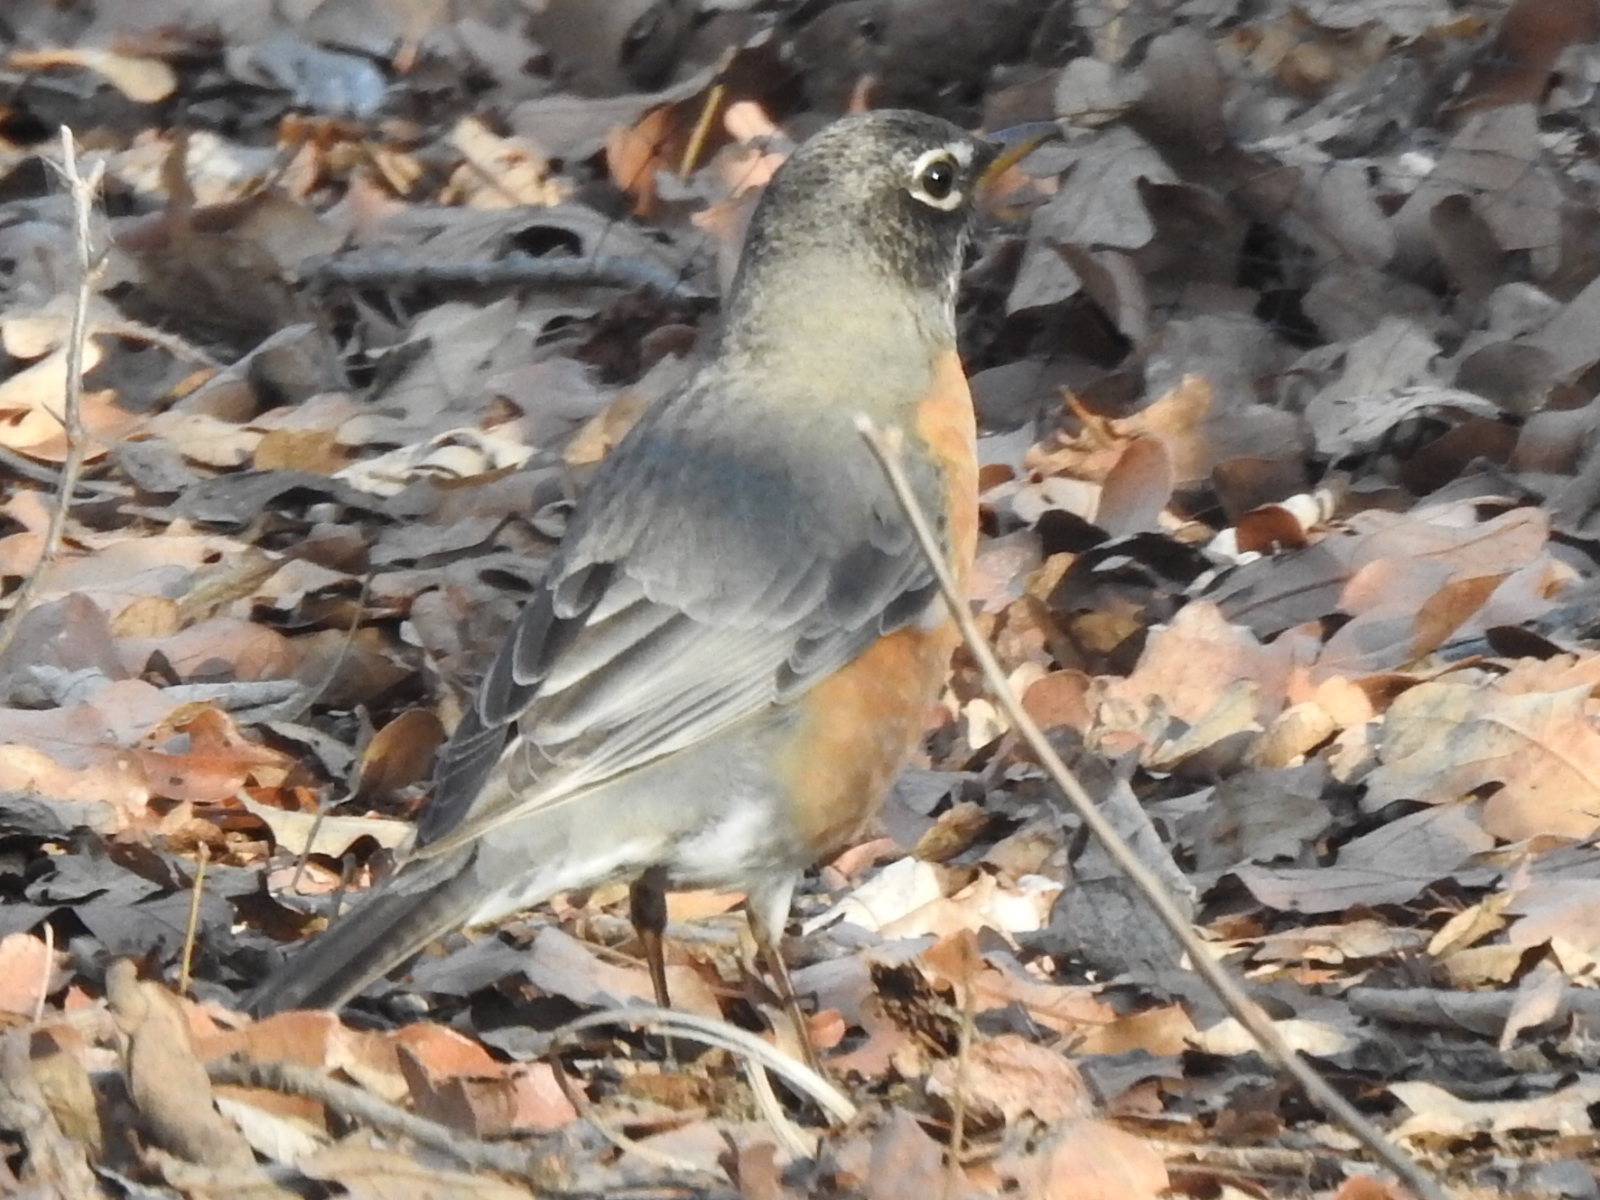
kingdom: Animalia
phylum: Chordata
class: Aves
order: Passeriformes
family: Turdidae
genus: Turdus
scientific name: Turdus migratorius
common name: American robin
